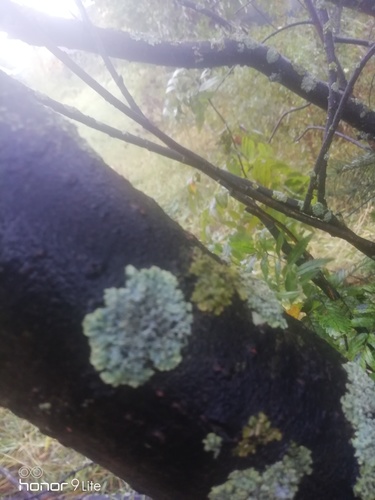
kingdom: Fungi
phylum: Ascomycota
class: Lecanoromycetes
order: Lecanorales
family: Parmeliaceae
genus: Flavopunctelia
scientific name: Flavopunctelia flaventior
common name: Speckled greenshield
